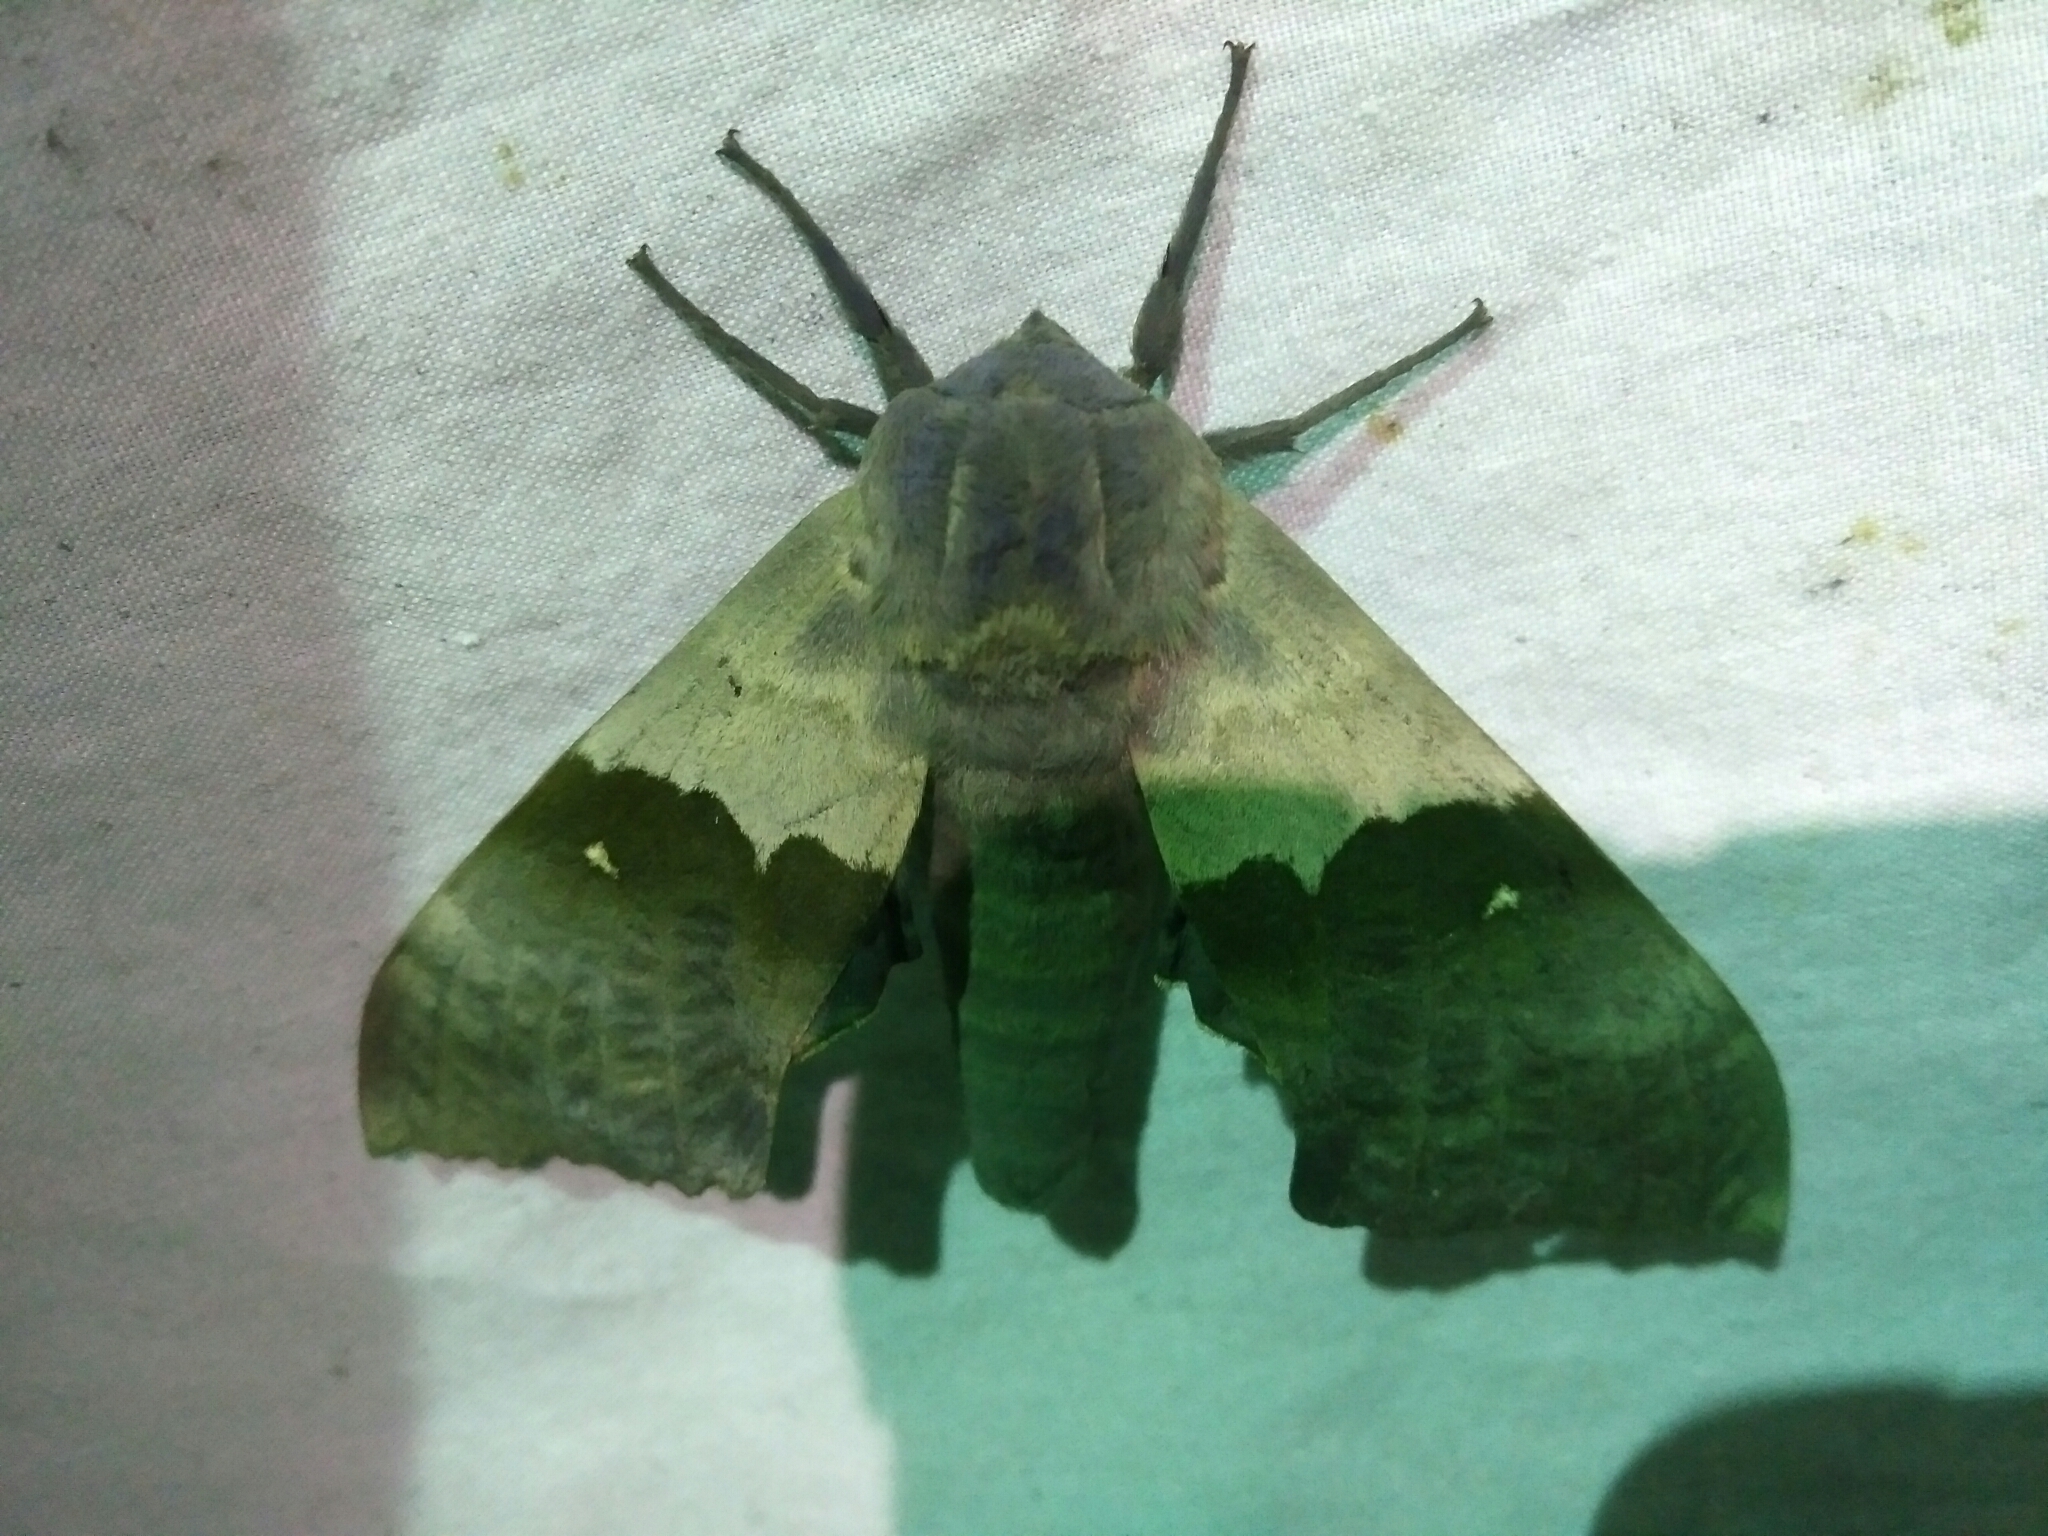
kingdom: Animalia
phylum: Arthropoda
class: Insecta
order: Lepidoptera
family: Sphingidae
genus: Pachysphinx
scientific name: Pachysphinx modesta
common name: Big poplar sphinx
